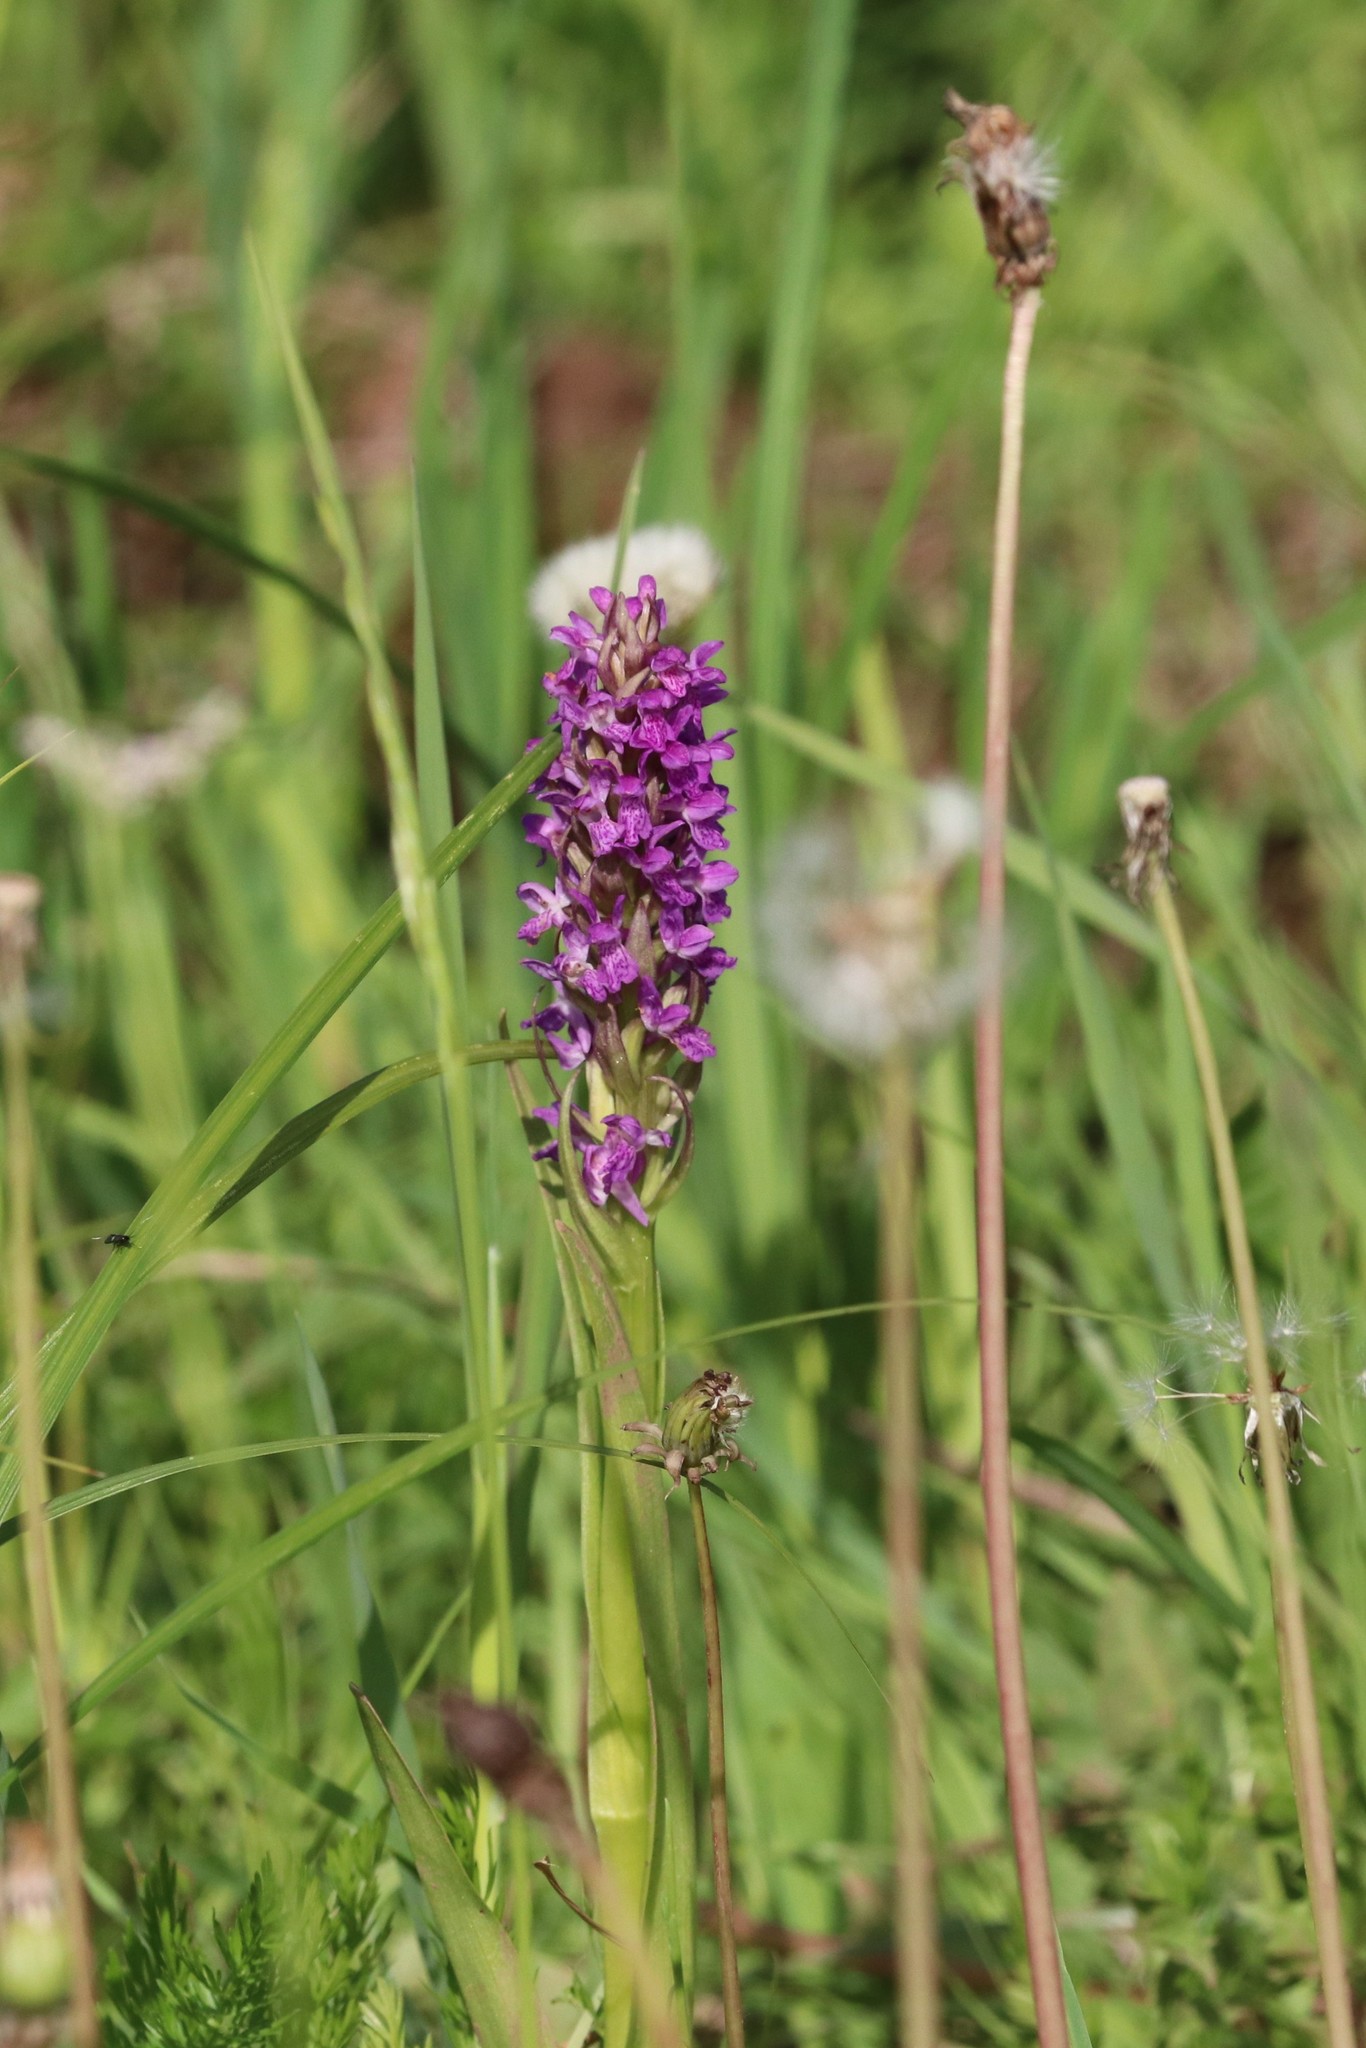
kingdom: Plantae
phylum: Tracheophyta
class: Liliopsida
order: Asparagales
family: Orchidaceae
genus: Dactylorhiza
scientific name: Dactylorhiza incarnata
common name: Early marsh-orchid
